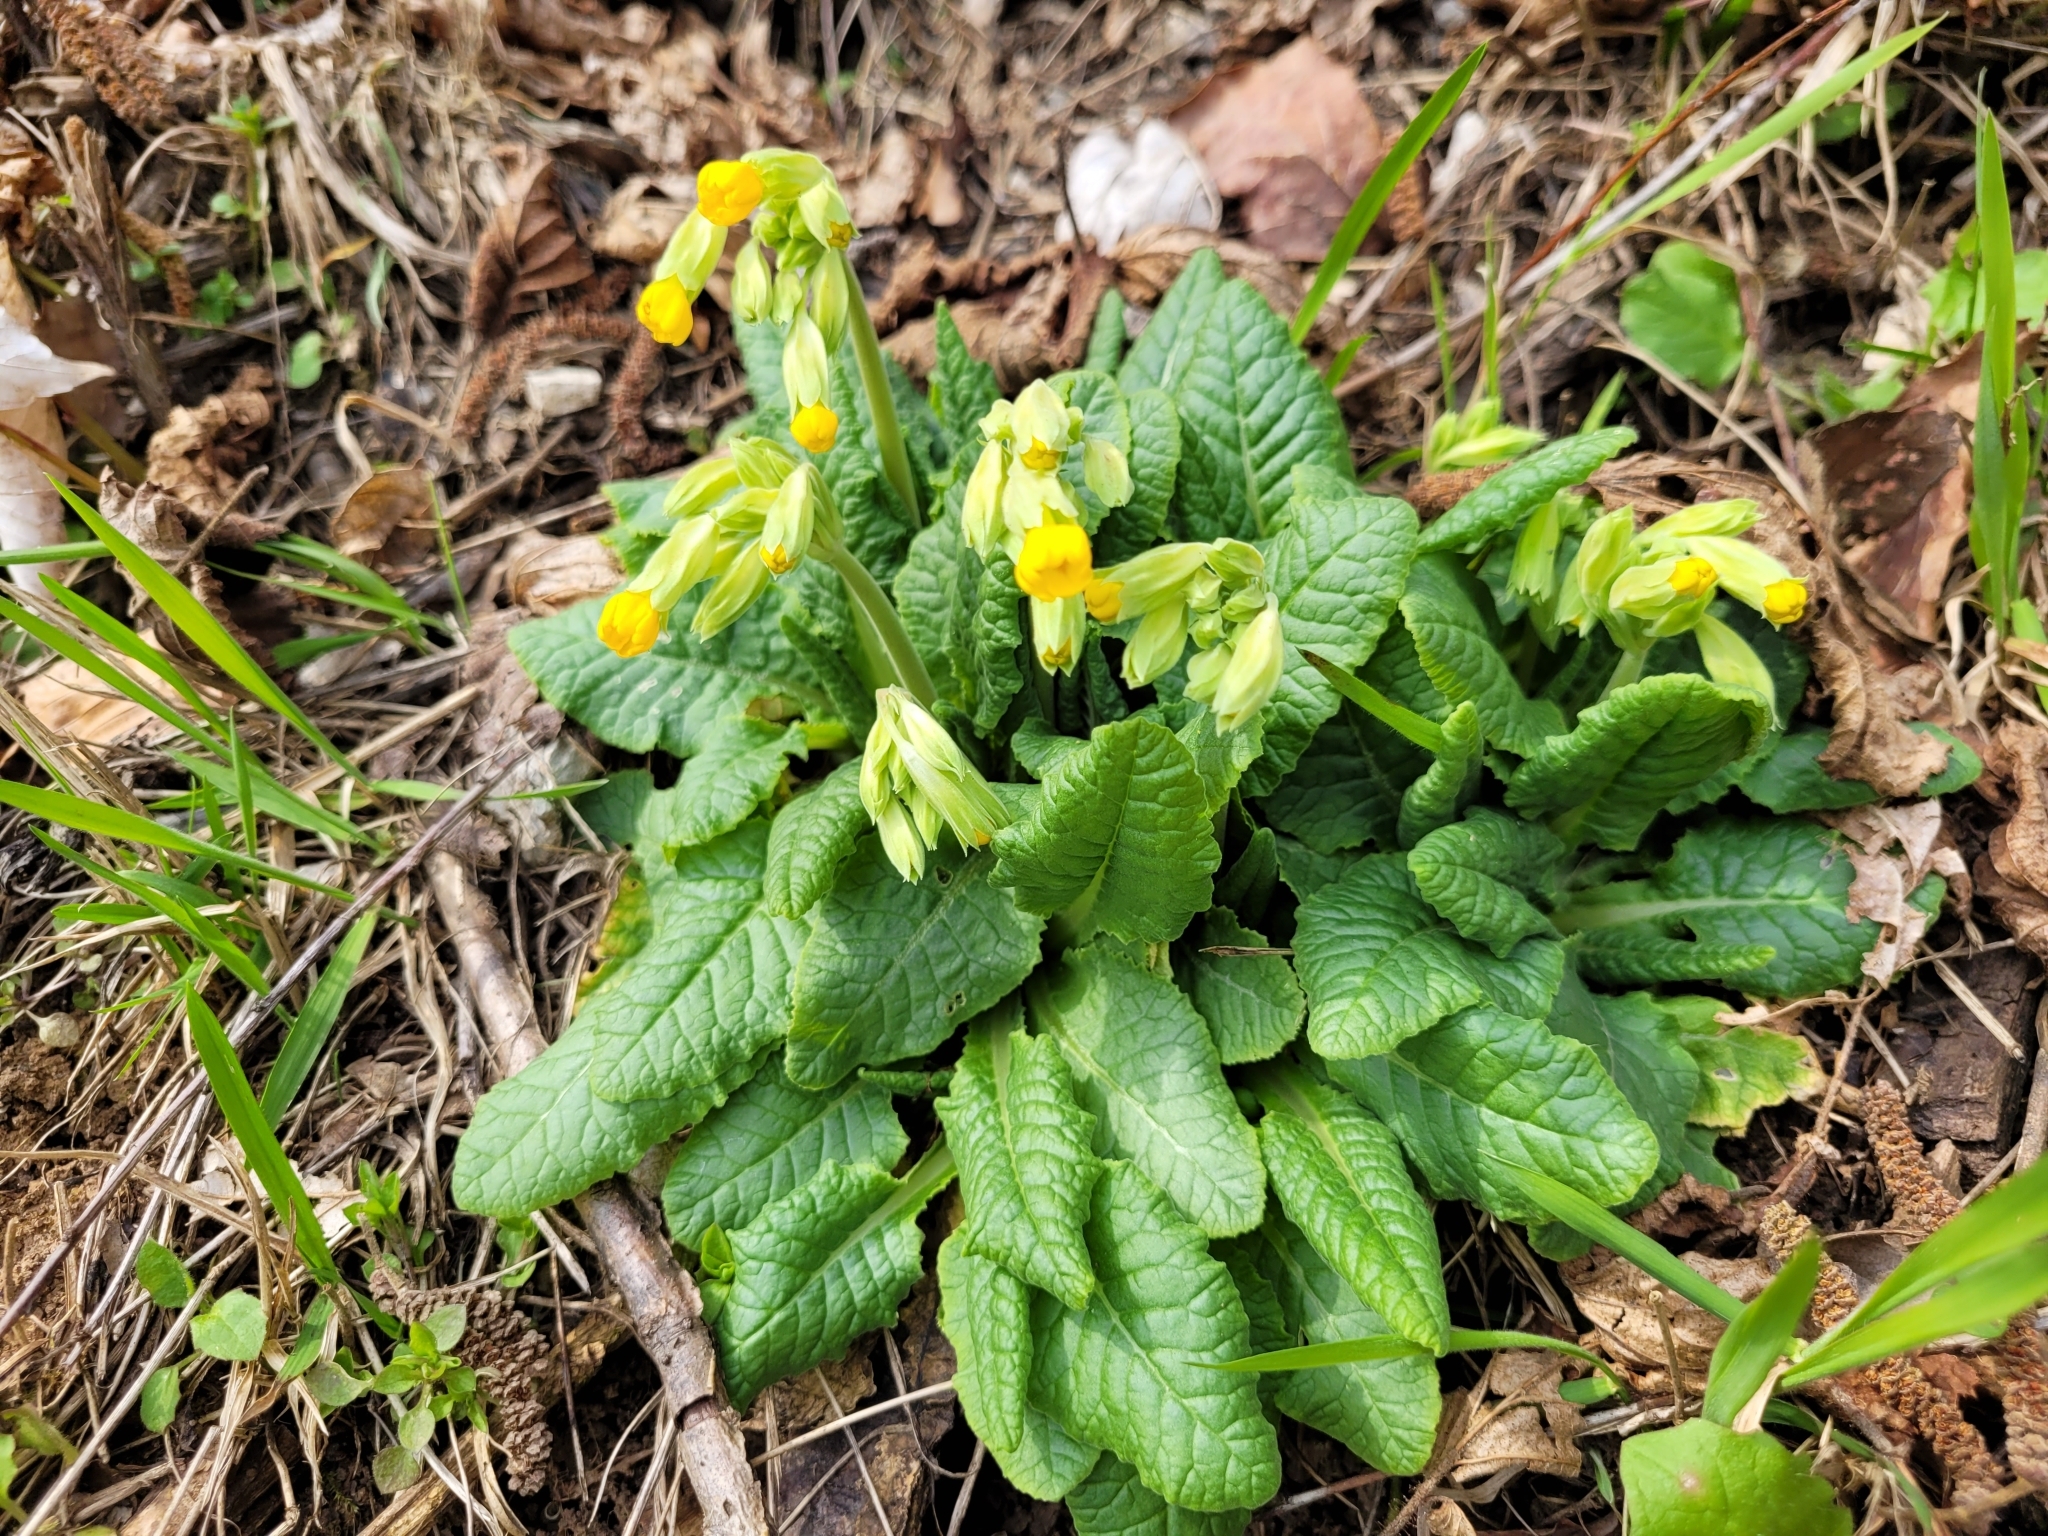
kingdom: Plantae
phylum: Tracheophyta
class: Magnoliopsida
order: Ericales
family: Primulaceae
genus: Primula
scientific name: Primula veris
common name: Cowslip
